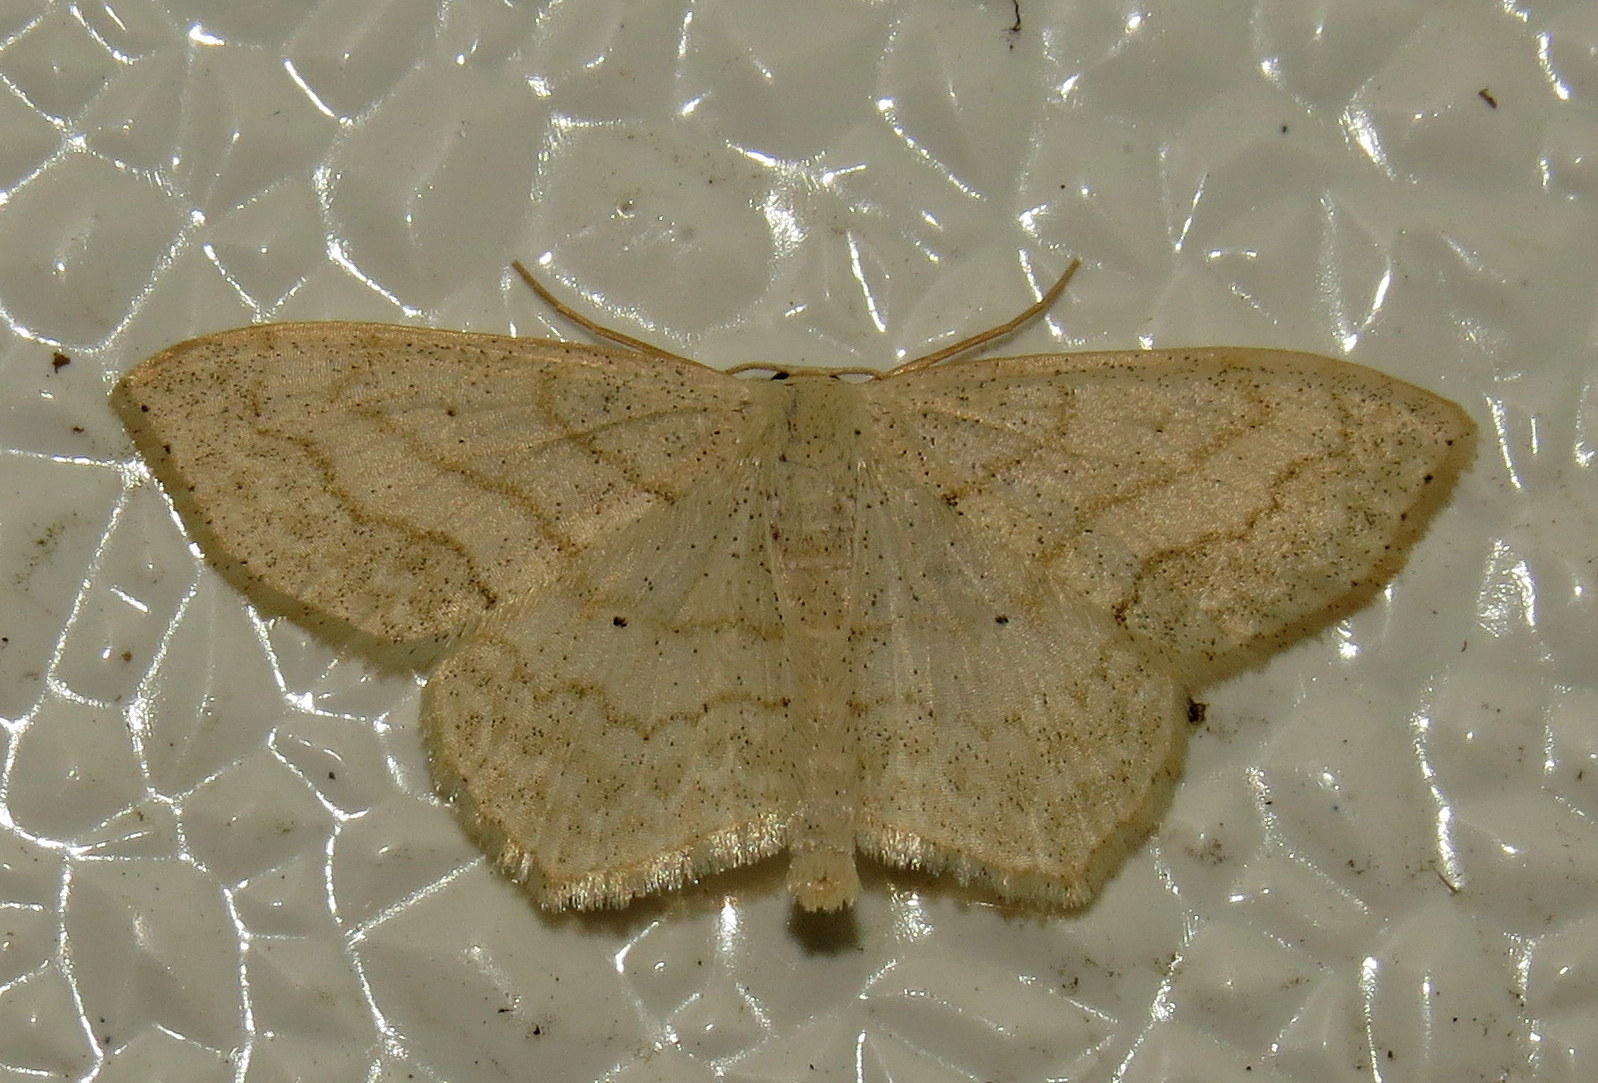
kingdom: Animalia
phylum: Arthropoda
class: Insecta
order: Lepidoptera
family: Geometridae
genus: Scopula
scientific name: Scopula limboundata
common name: Large lace border
